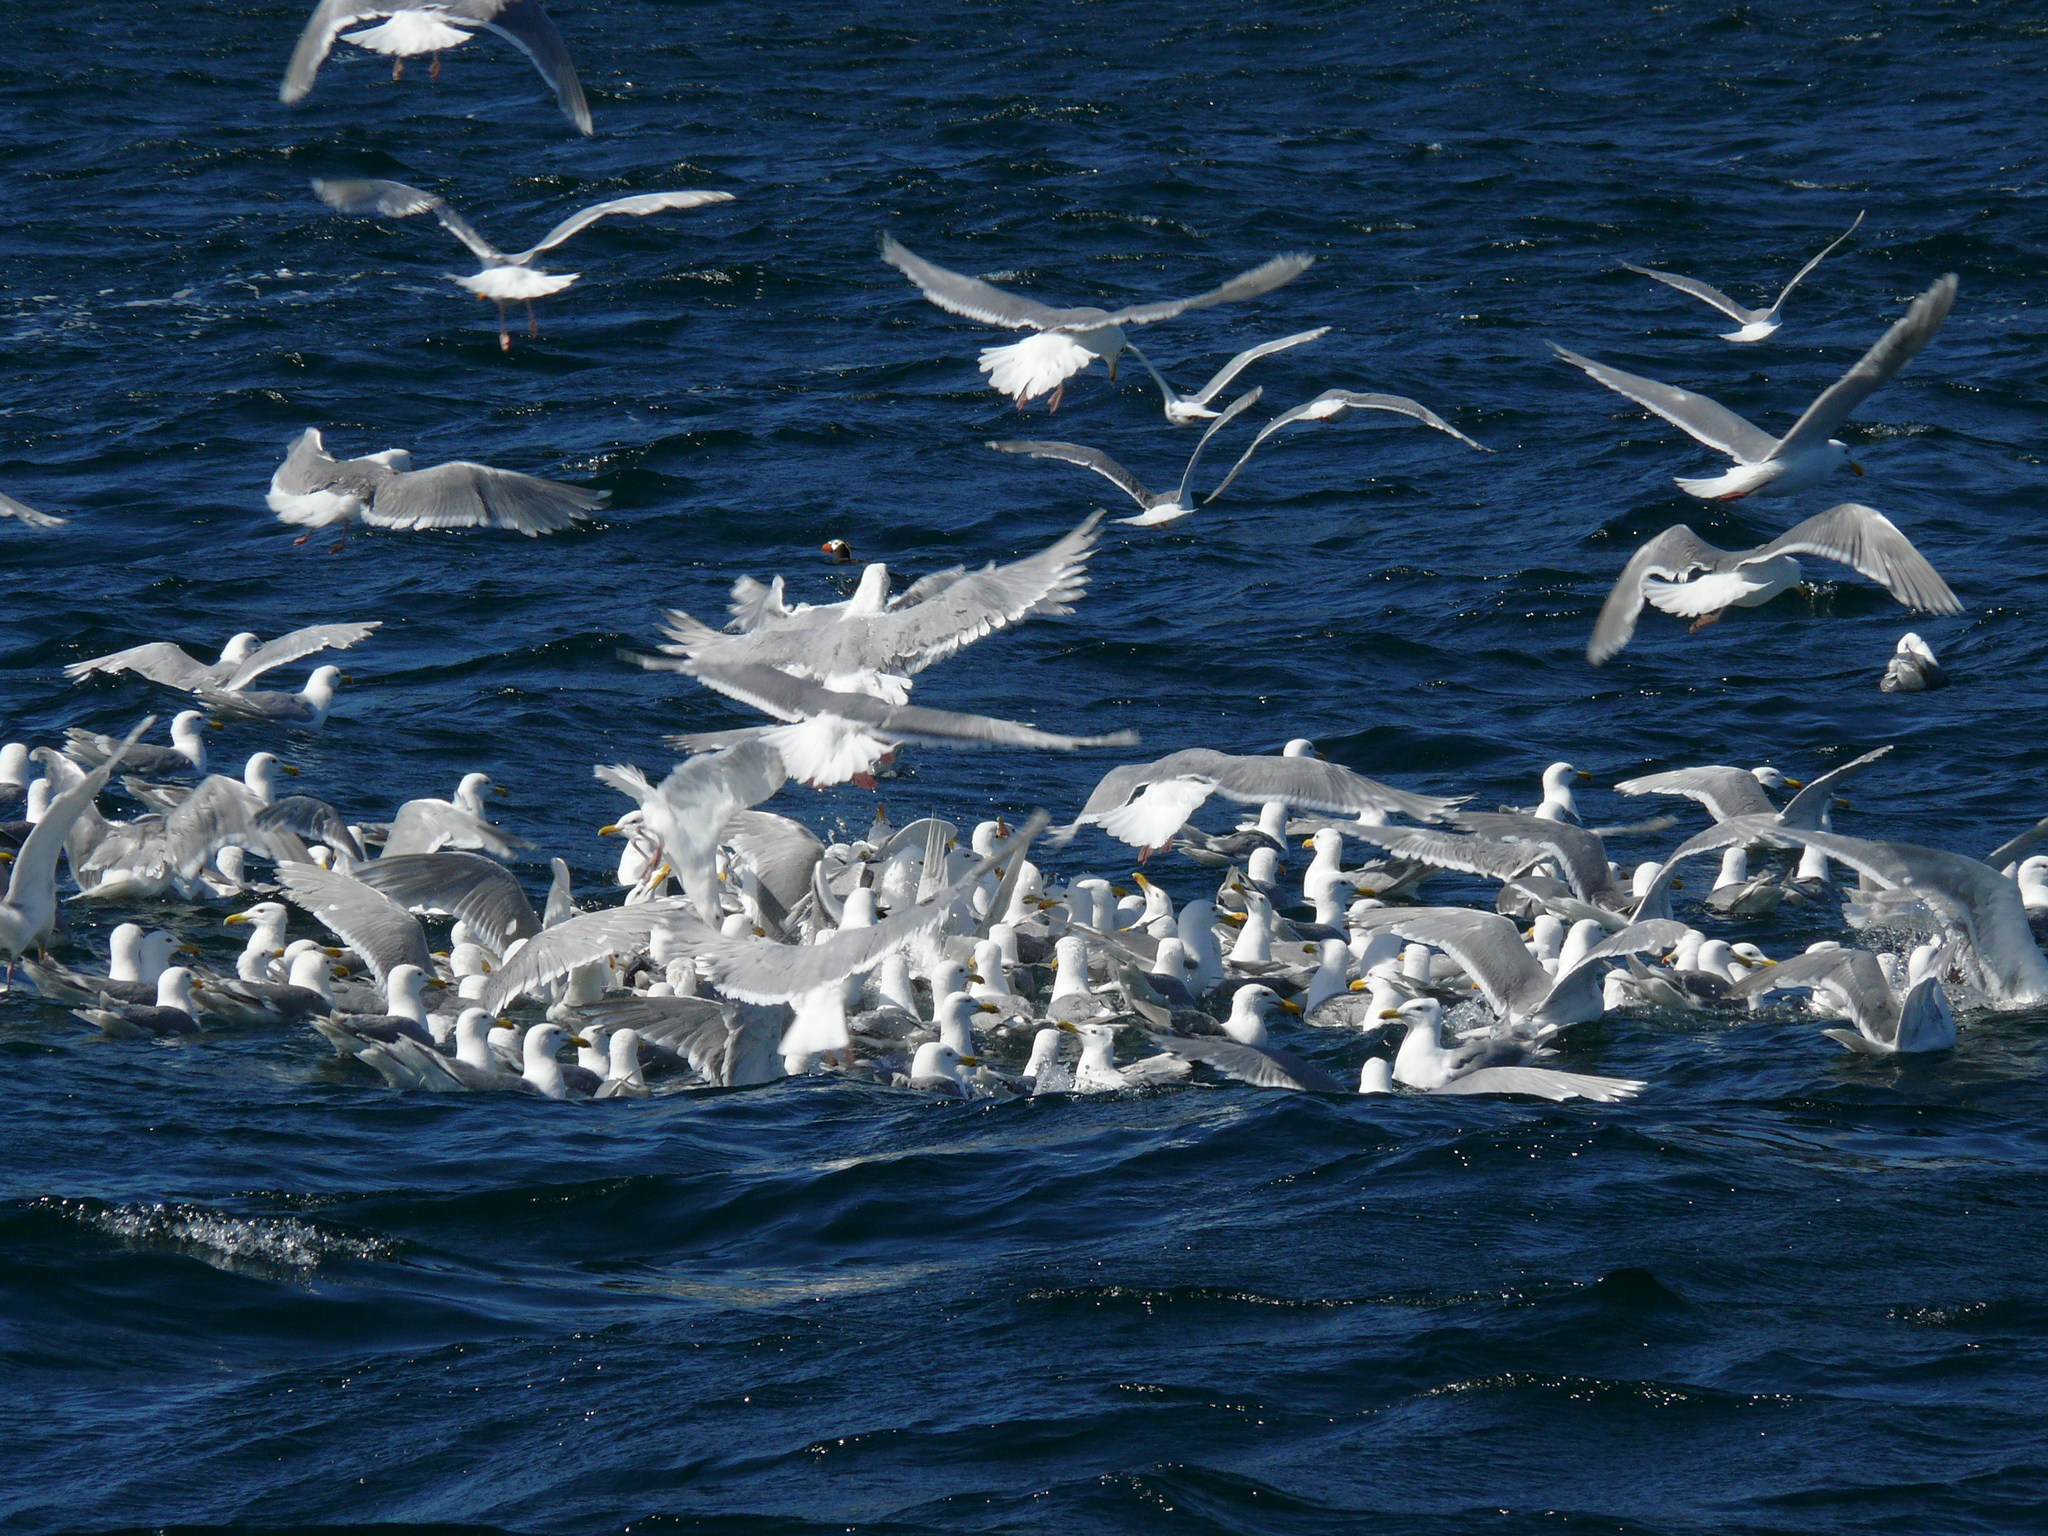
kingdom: Animalia
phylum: Chordata
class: Aves
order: Charadriiformes
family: Laridae
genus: Larus
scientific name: Larus glaucescens
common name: Glaucous-winged gull
